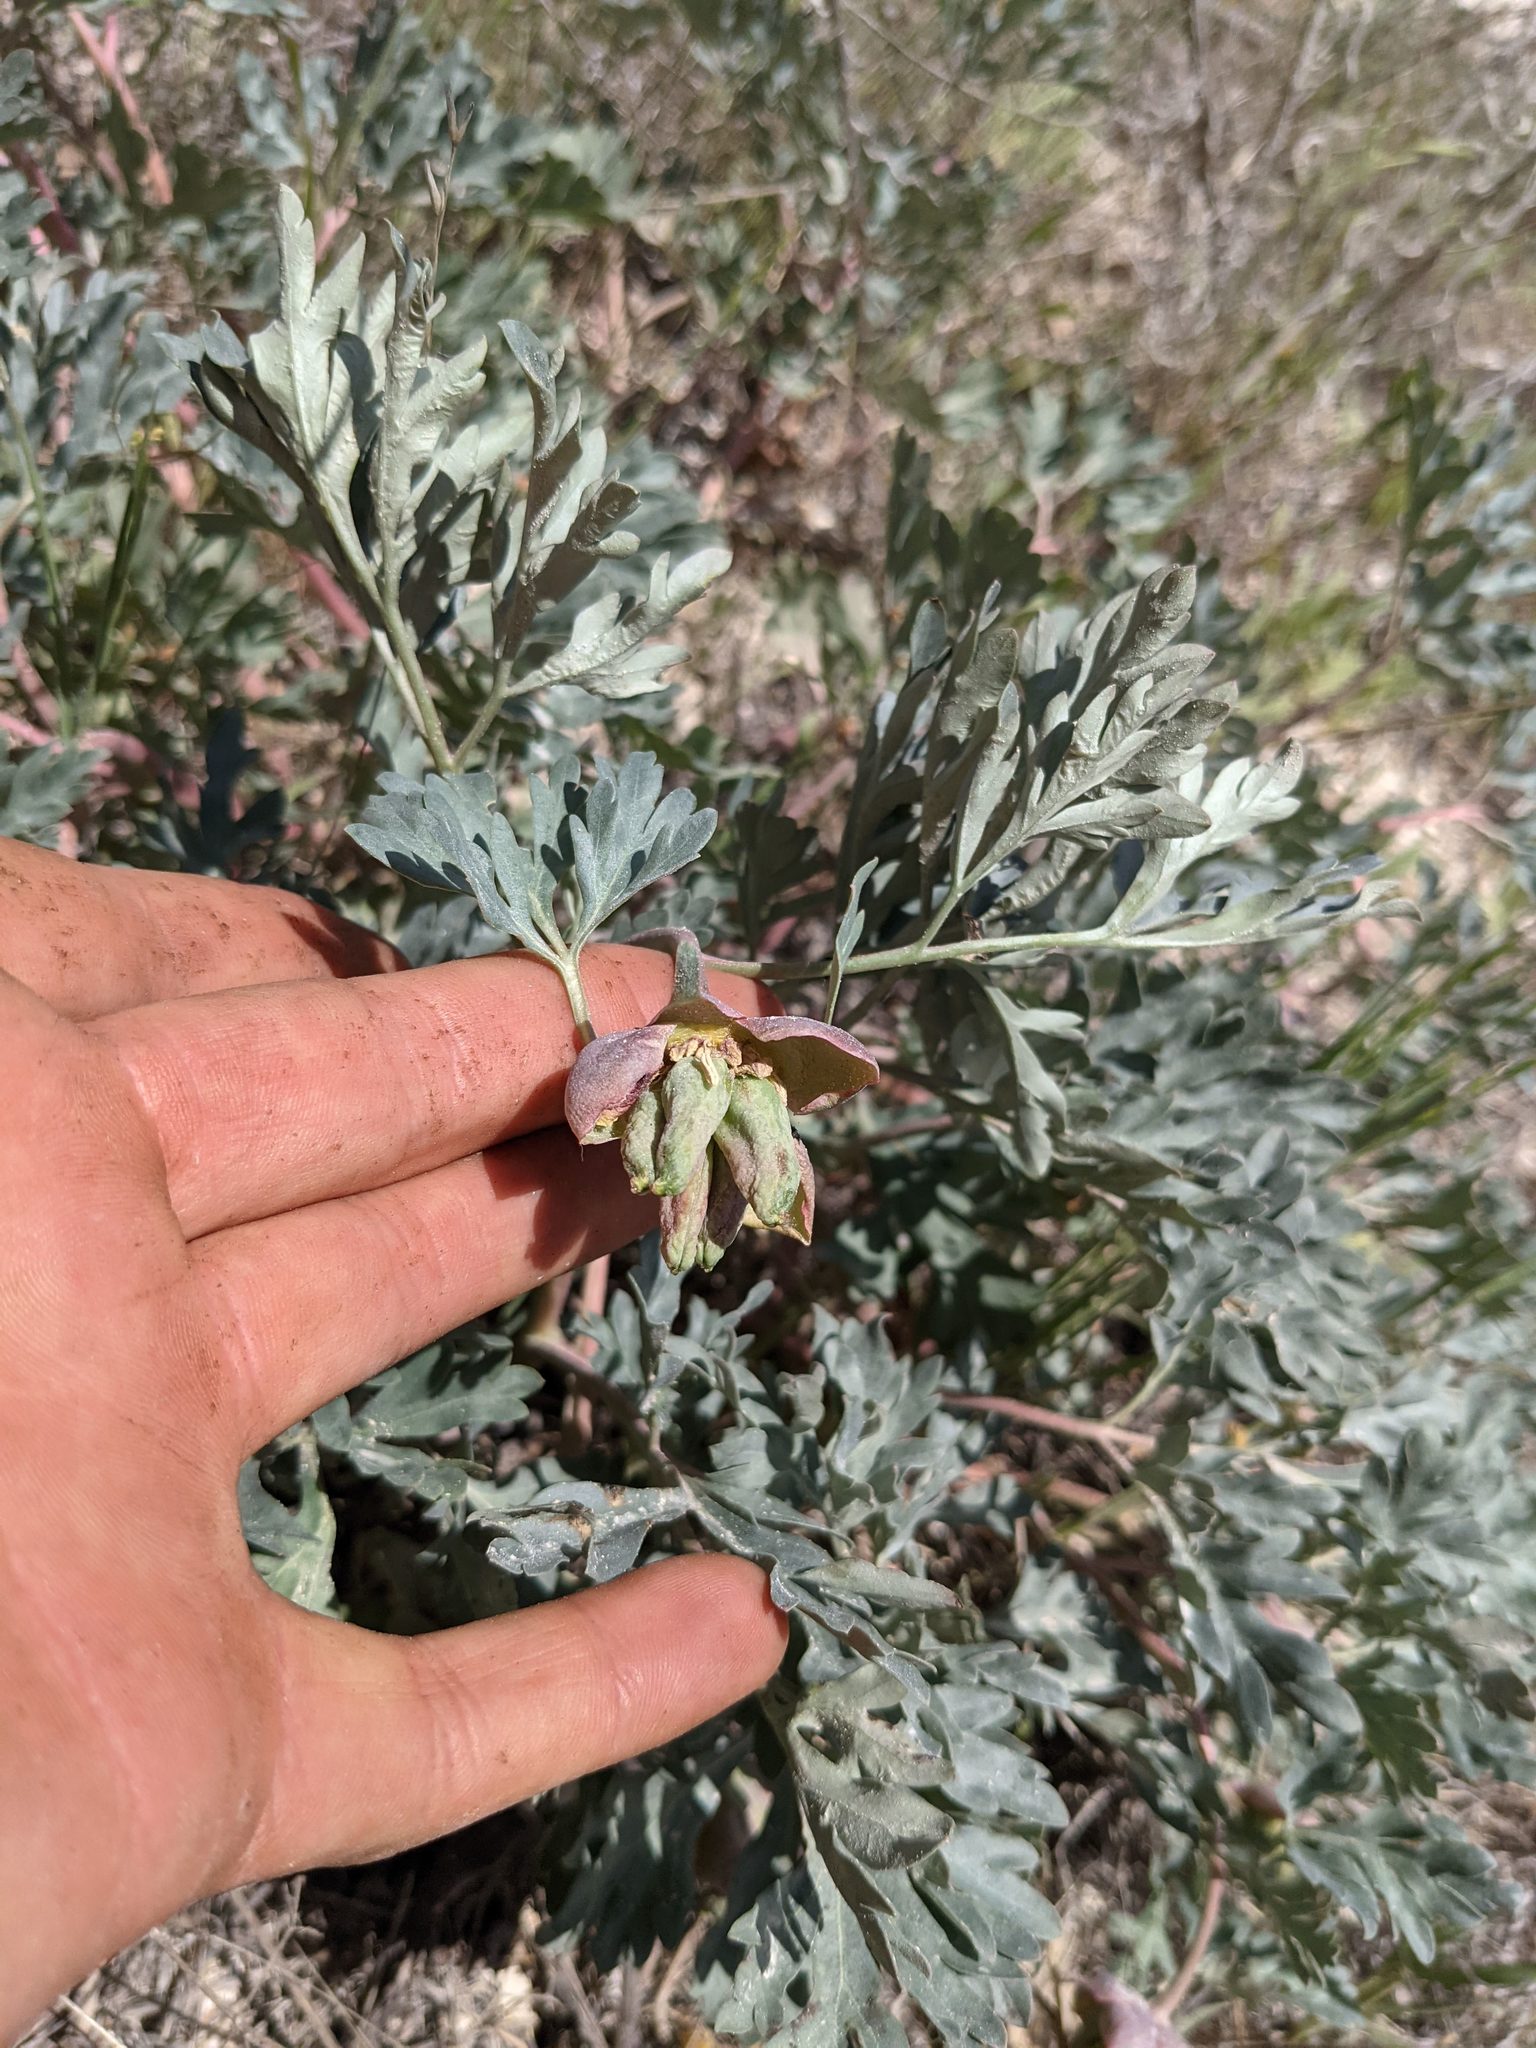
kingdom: Plantae
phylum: Tracheophyta
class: Magnoliopsida
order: Saxifragales
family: Paeoniaceae
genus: Paeonia
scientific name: Paeonia brownii
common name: Brown's peony
